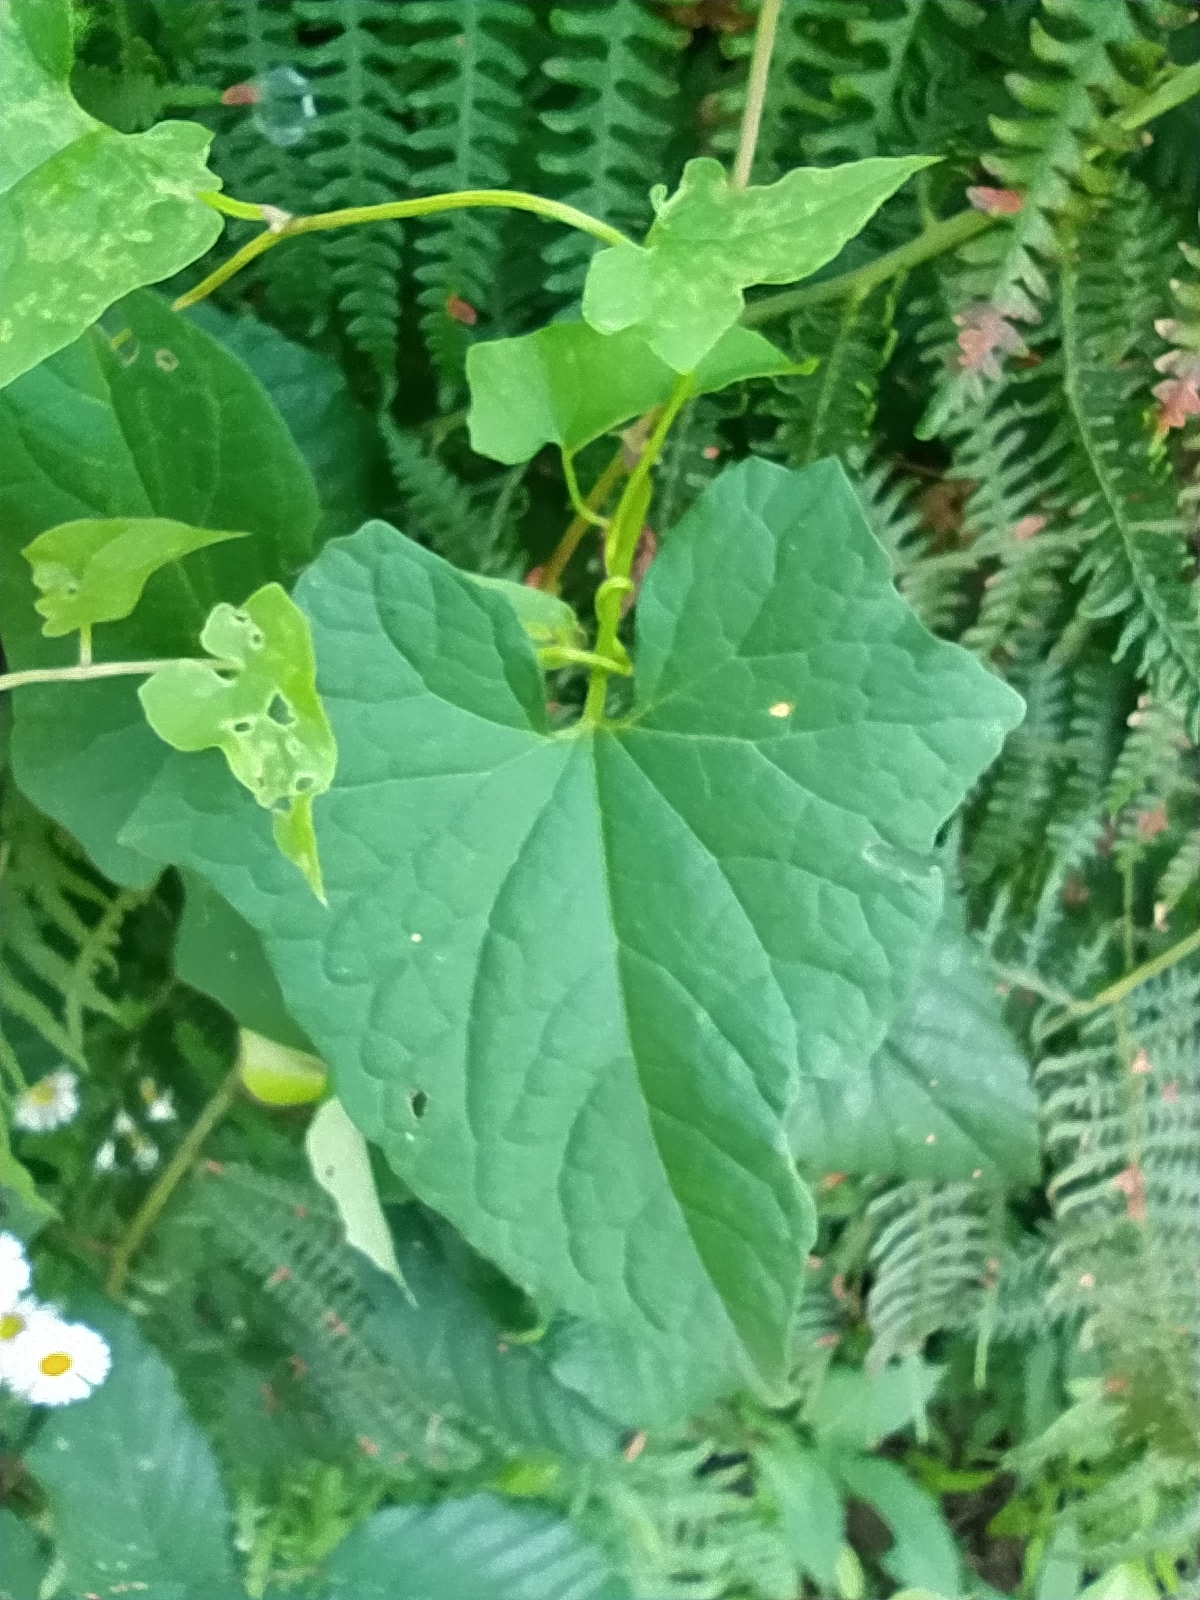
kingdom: Plantae
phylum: Tracheophyta
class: Magnoliopsida
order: Solanales
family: Convolvulaceae
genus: Calystegia
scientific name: Calystegia silvatica
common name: Large bindweed
